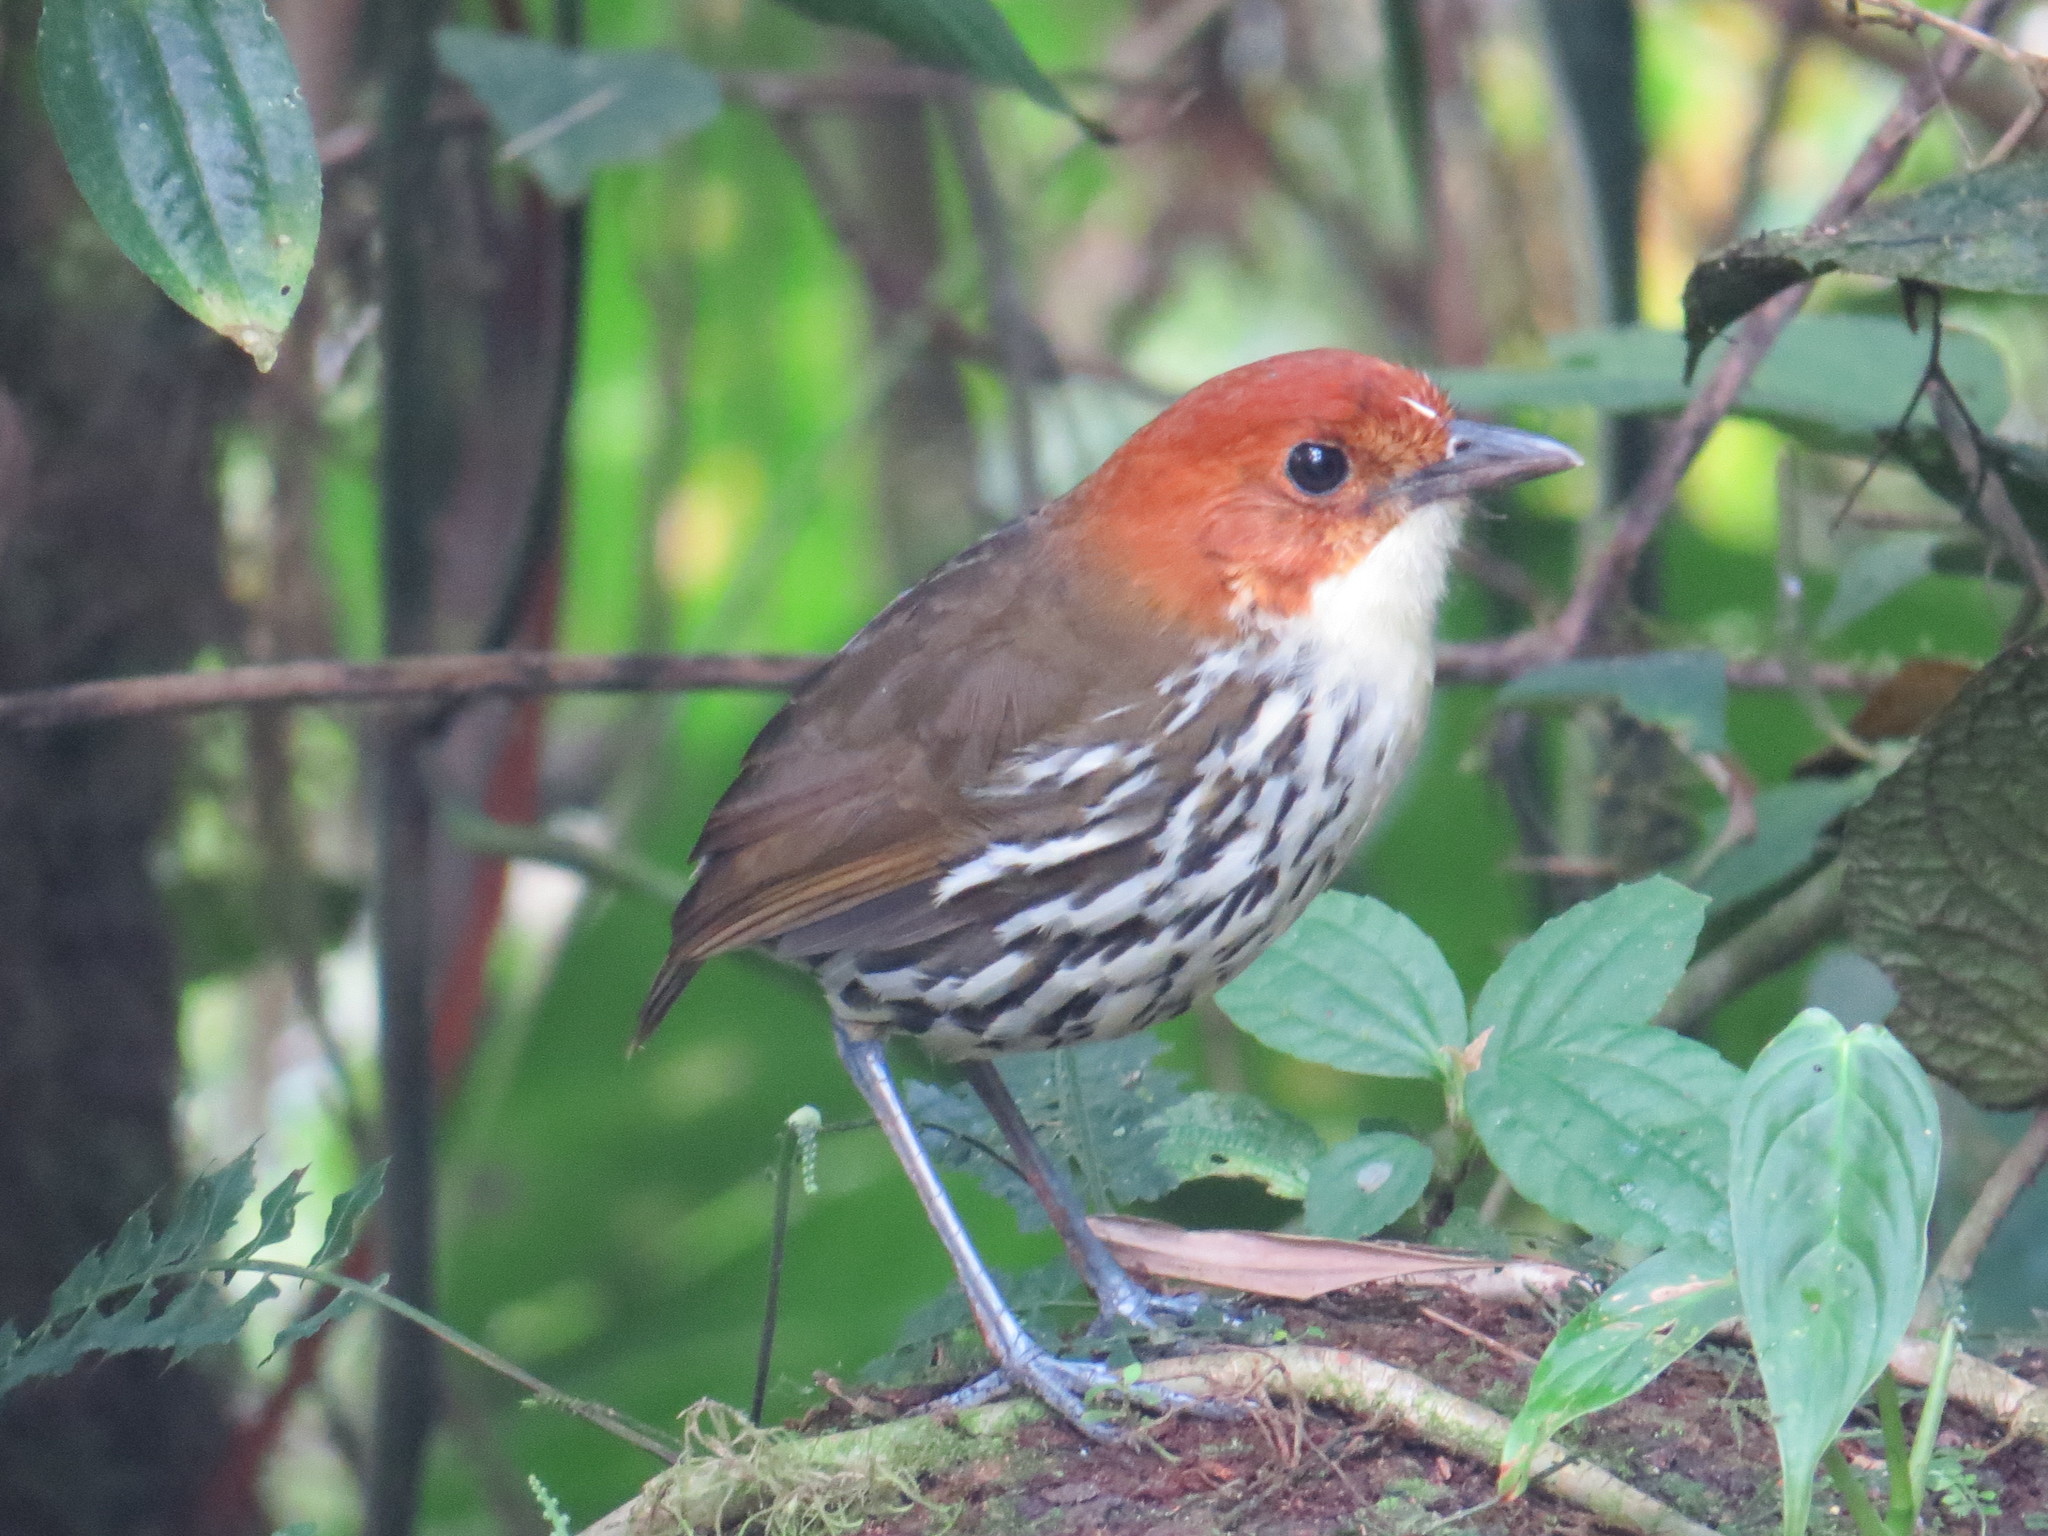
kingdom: Animalia
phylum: Chordata
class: Aves
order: Passeriformes
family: Grallariidae
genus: Grallaria
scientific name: Grallaria ruficapilla
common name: Chestnut-crowned antpitta
